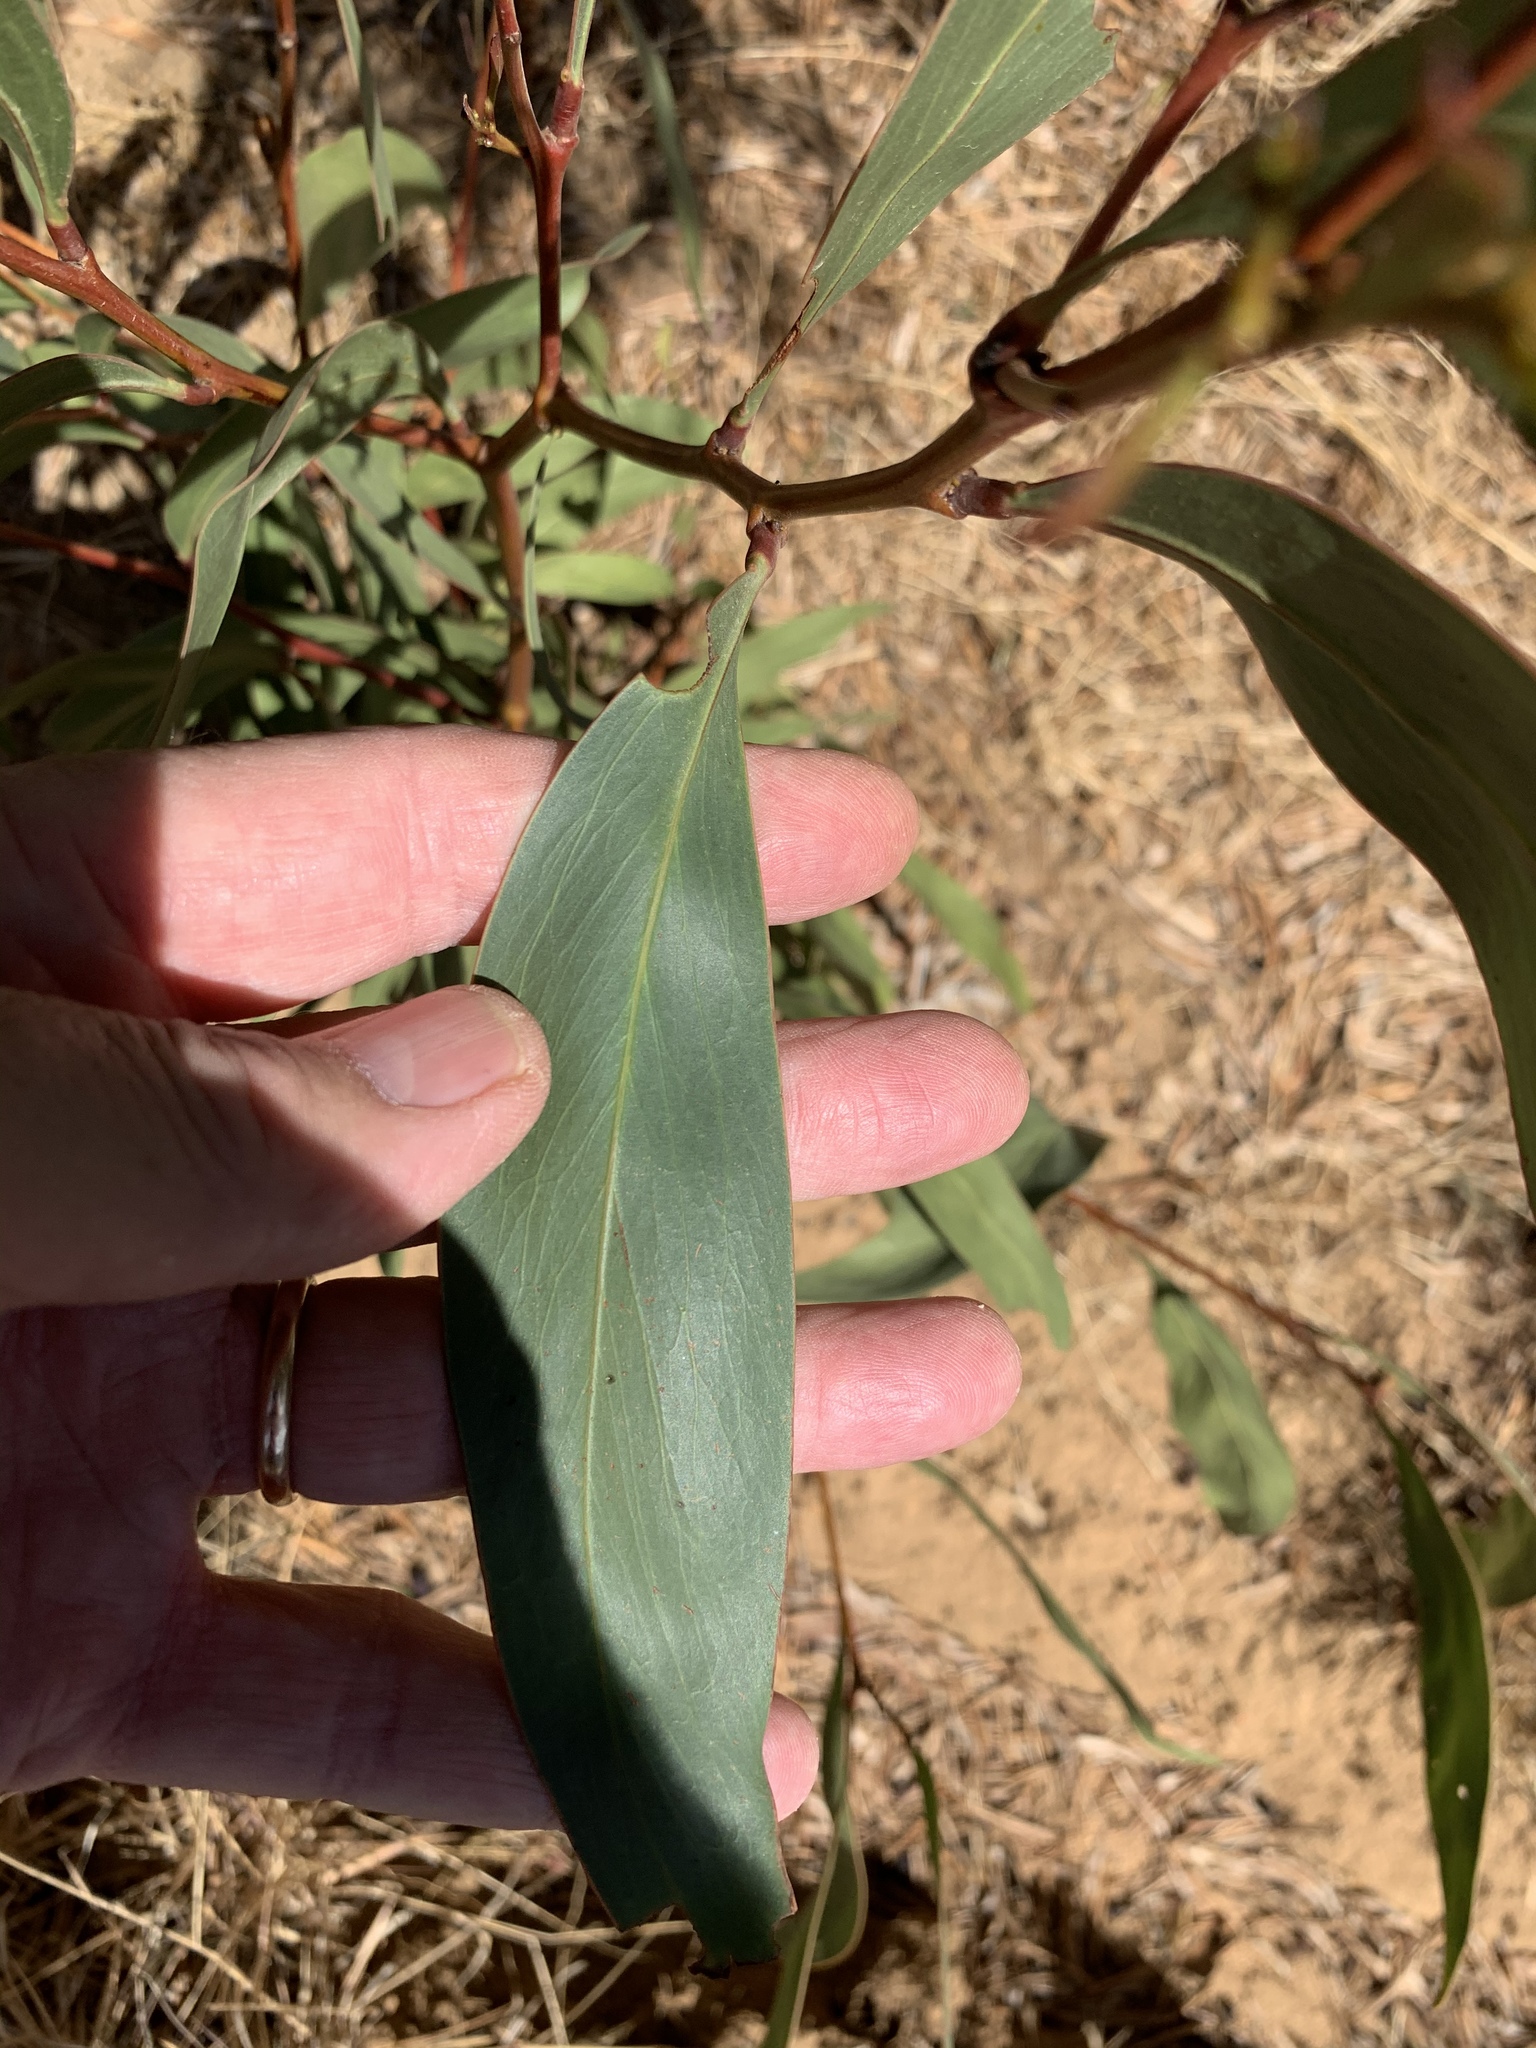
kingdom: Plantae
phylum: Tracheophyta
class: Magnoliopsida
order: Fabales
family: Fabaceae
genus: Acacia
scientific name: Acacia pycnantha
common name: Golden wattle
